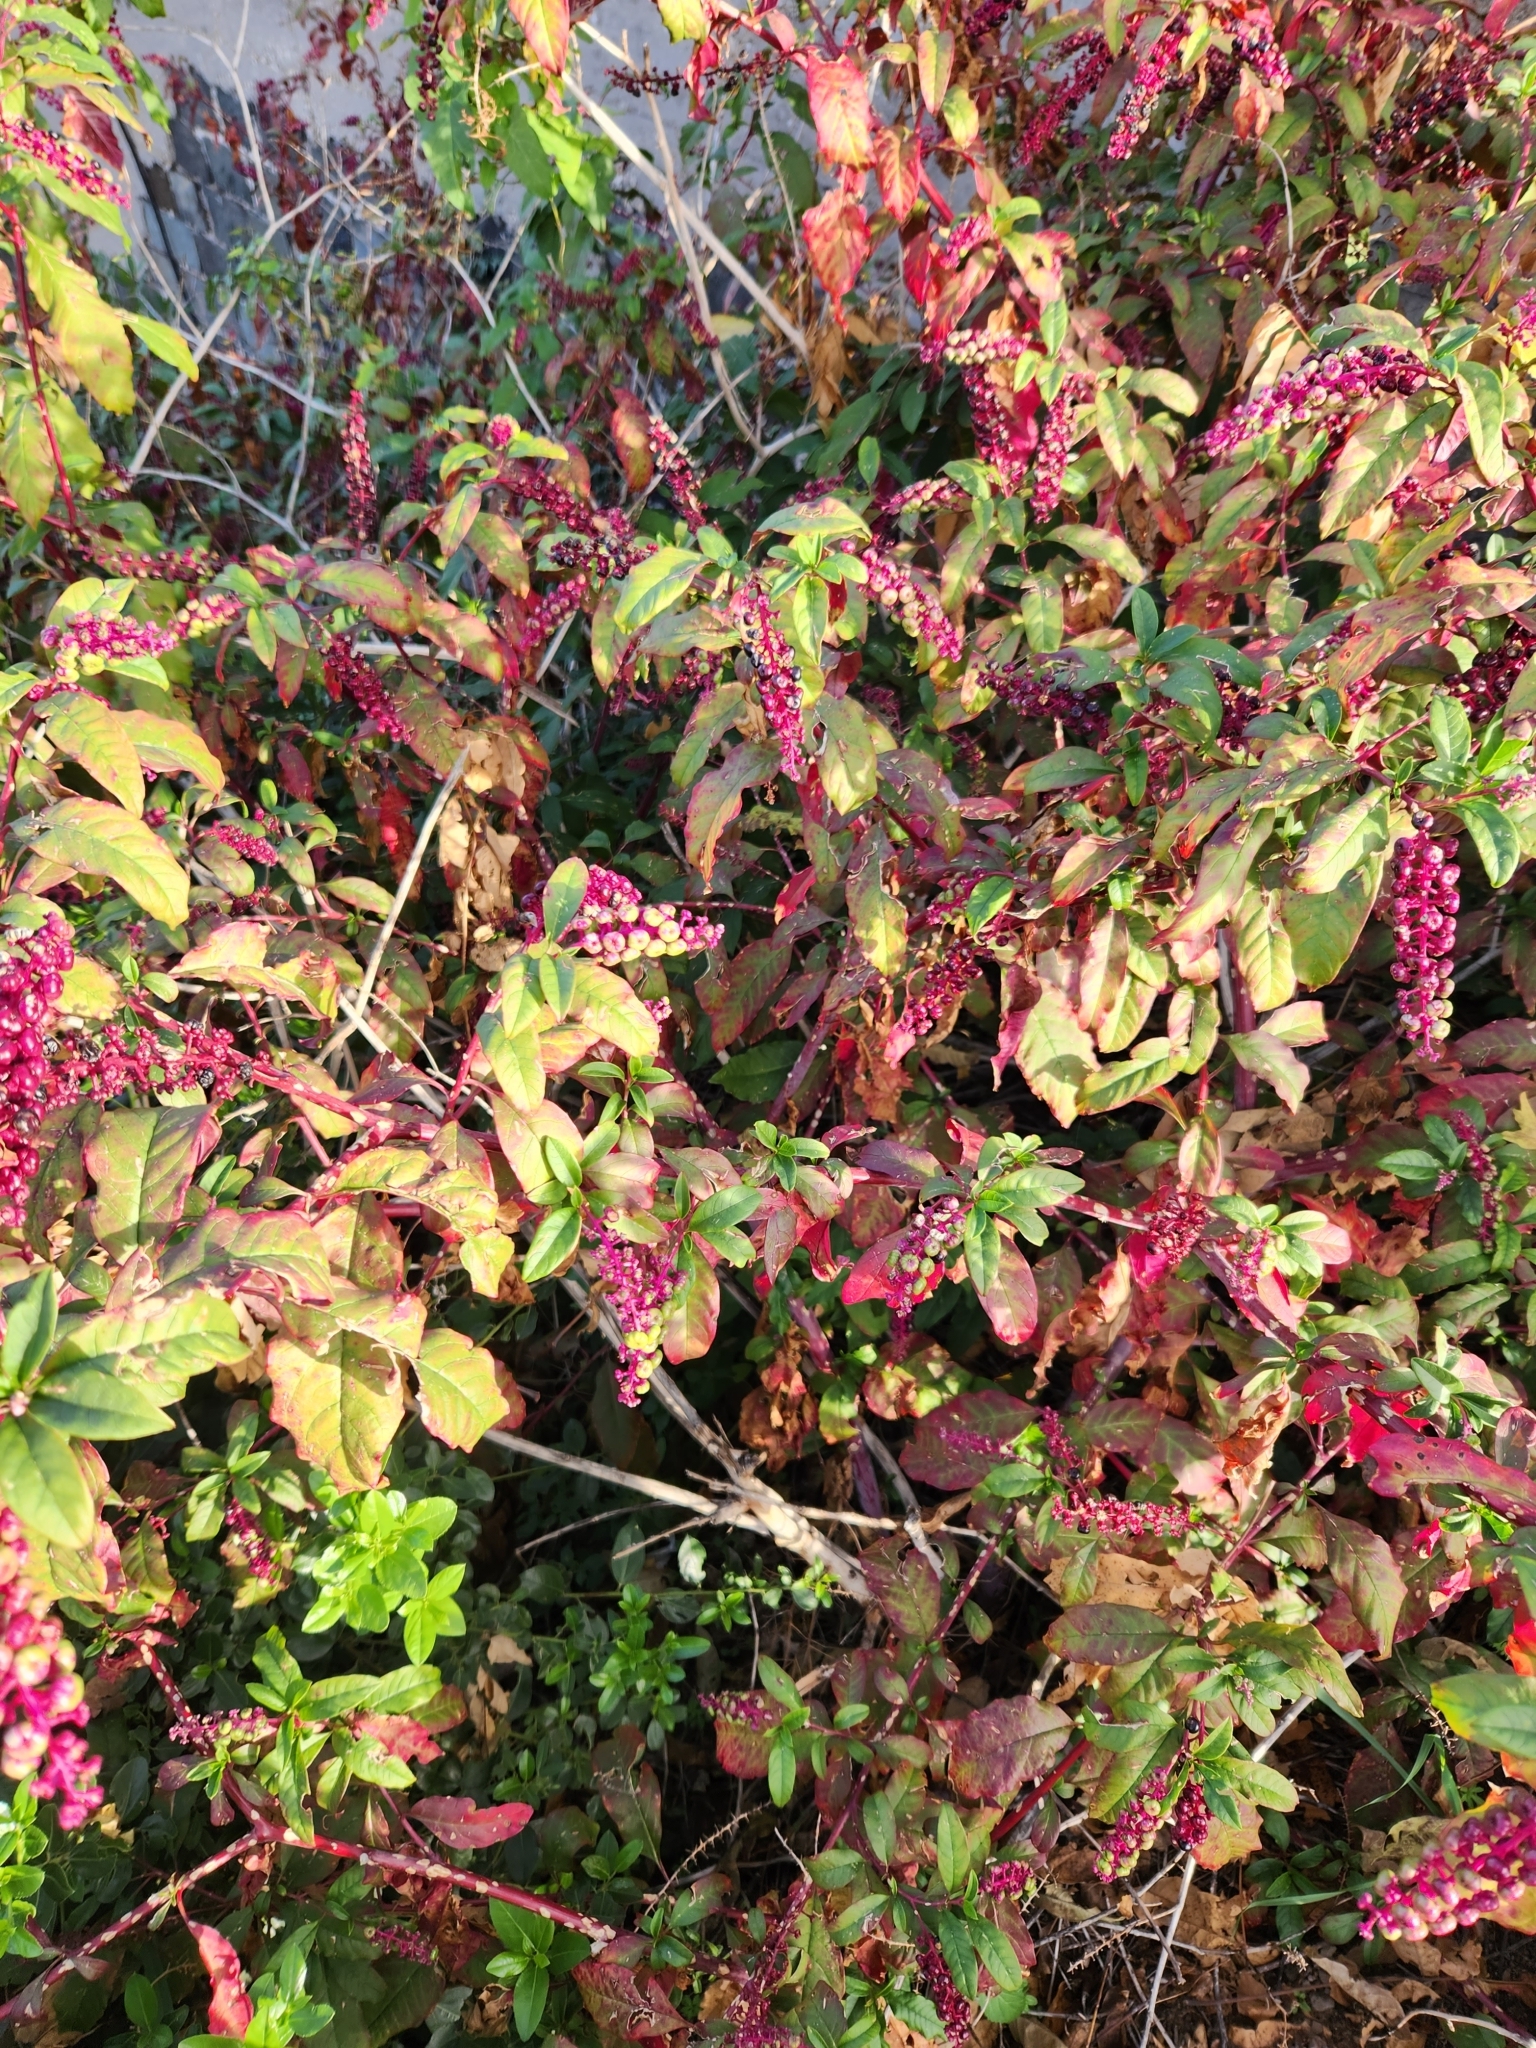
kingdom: Plantae
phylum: Tracheophyta
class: Magnoliopsida
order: Caryophyllales
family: Phytolaccaceae
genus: Phytolacca
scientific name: Phytolacca americana
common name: American pokeweed
